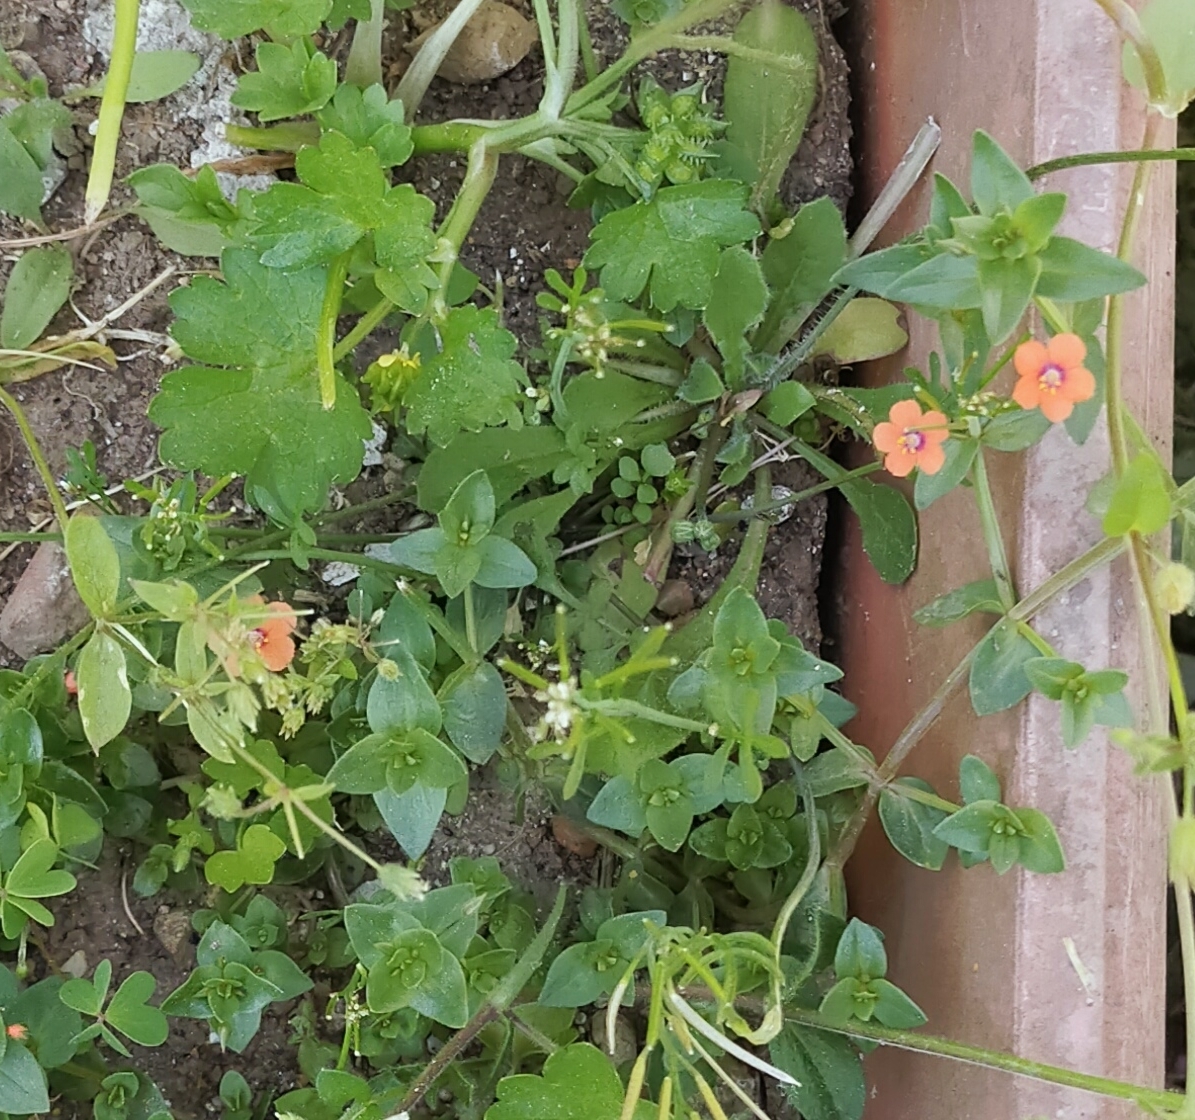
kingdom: Plantae
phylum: Tracheophyta
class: Magnoliopsida
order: Ericales
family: Primulaceae
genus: Lysimachia
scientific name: Lysimachia arvensis
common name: Scarlet pimpernel
